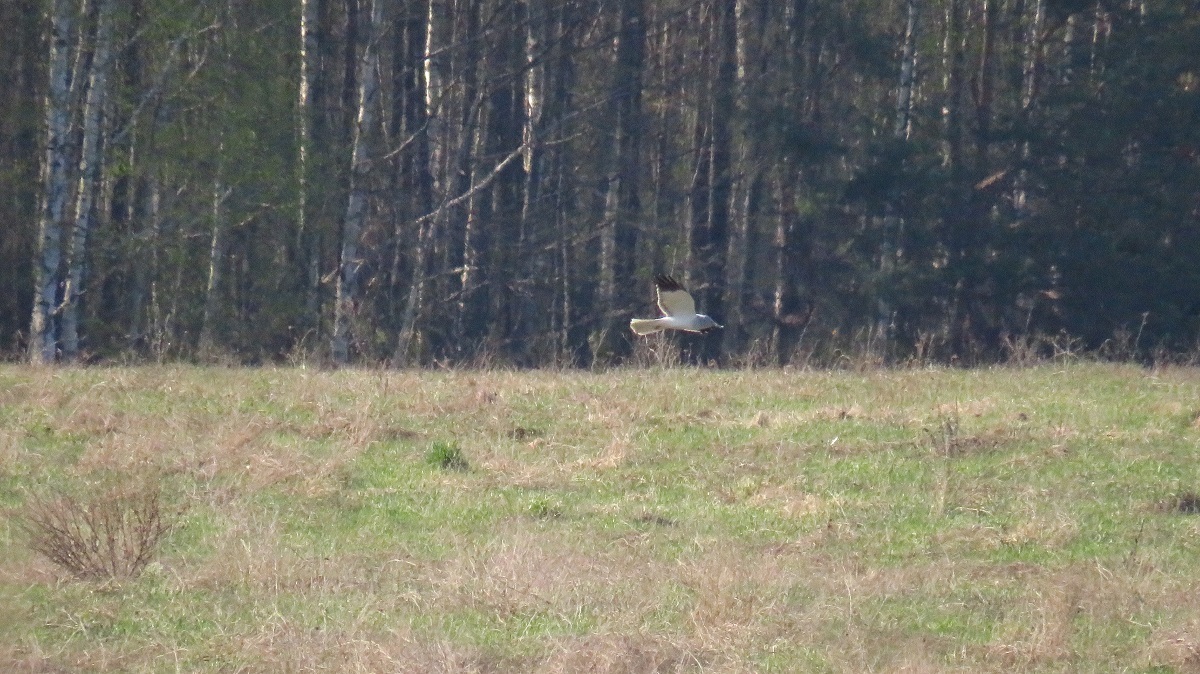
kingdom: Animalia
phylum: Chordata
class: Aves
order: Accipitriformes
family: Accipitridae
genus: Circus
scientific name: Circus cyaneus
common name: Hen harrier
